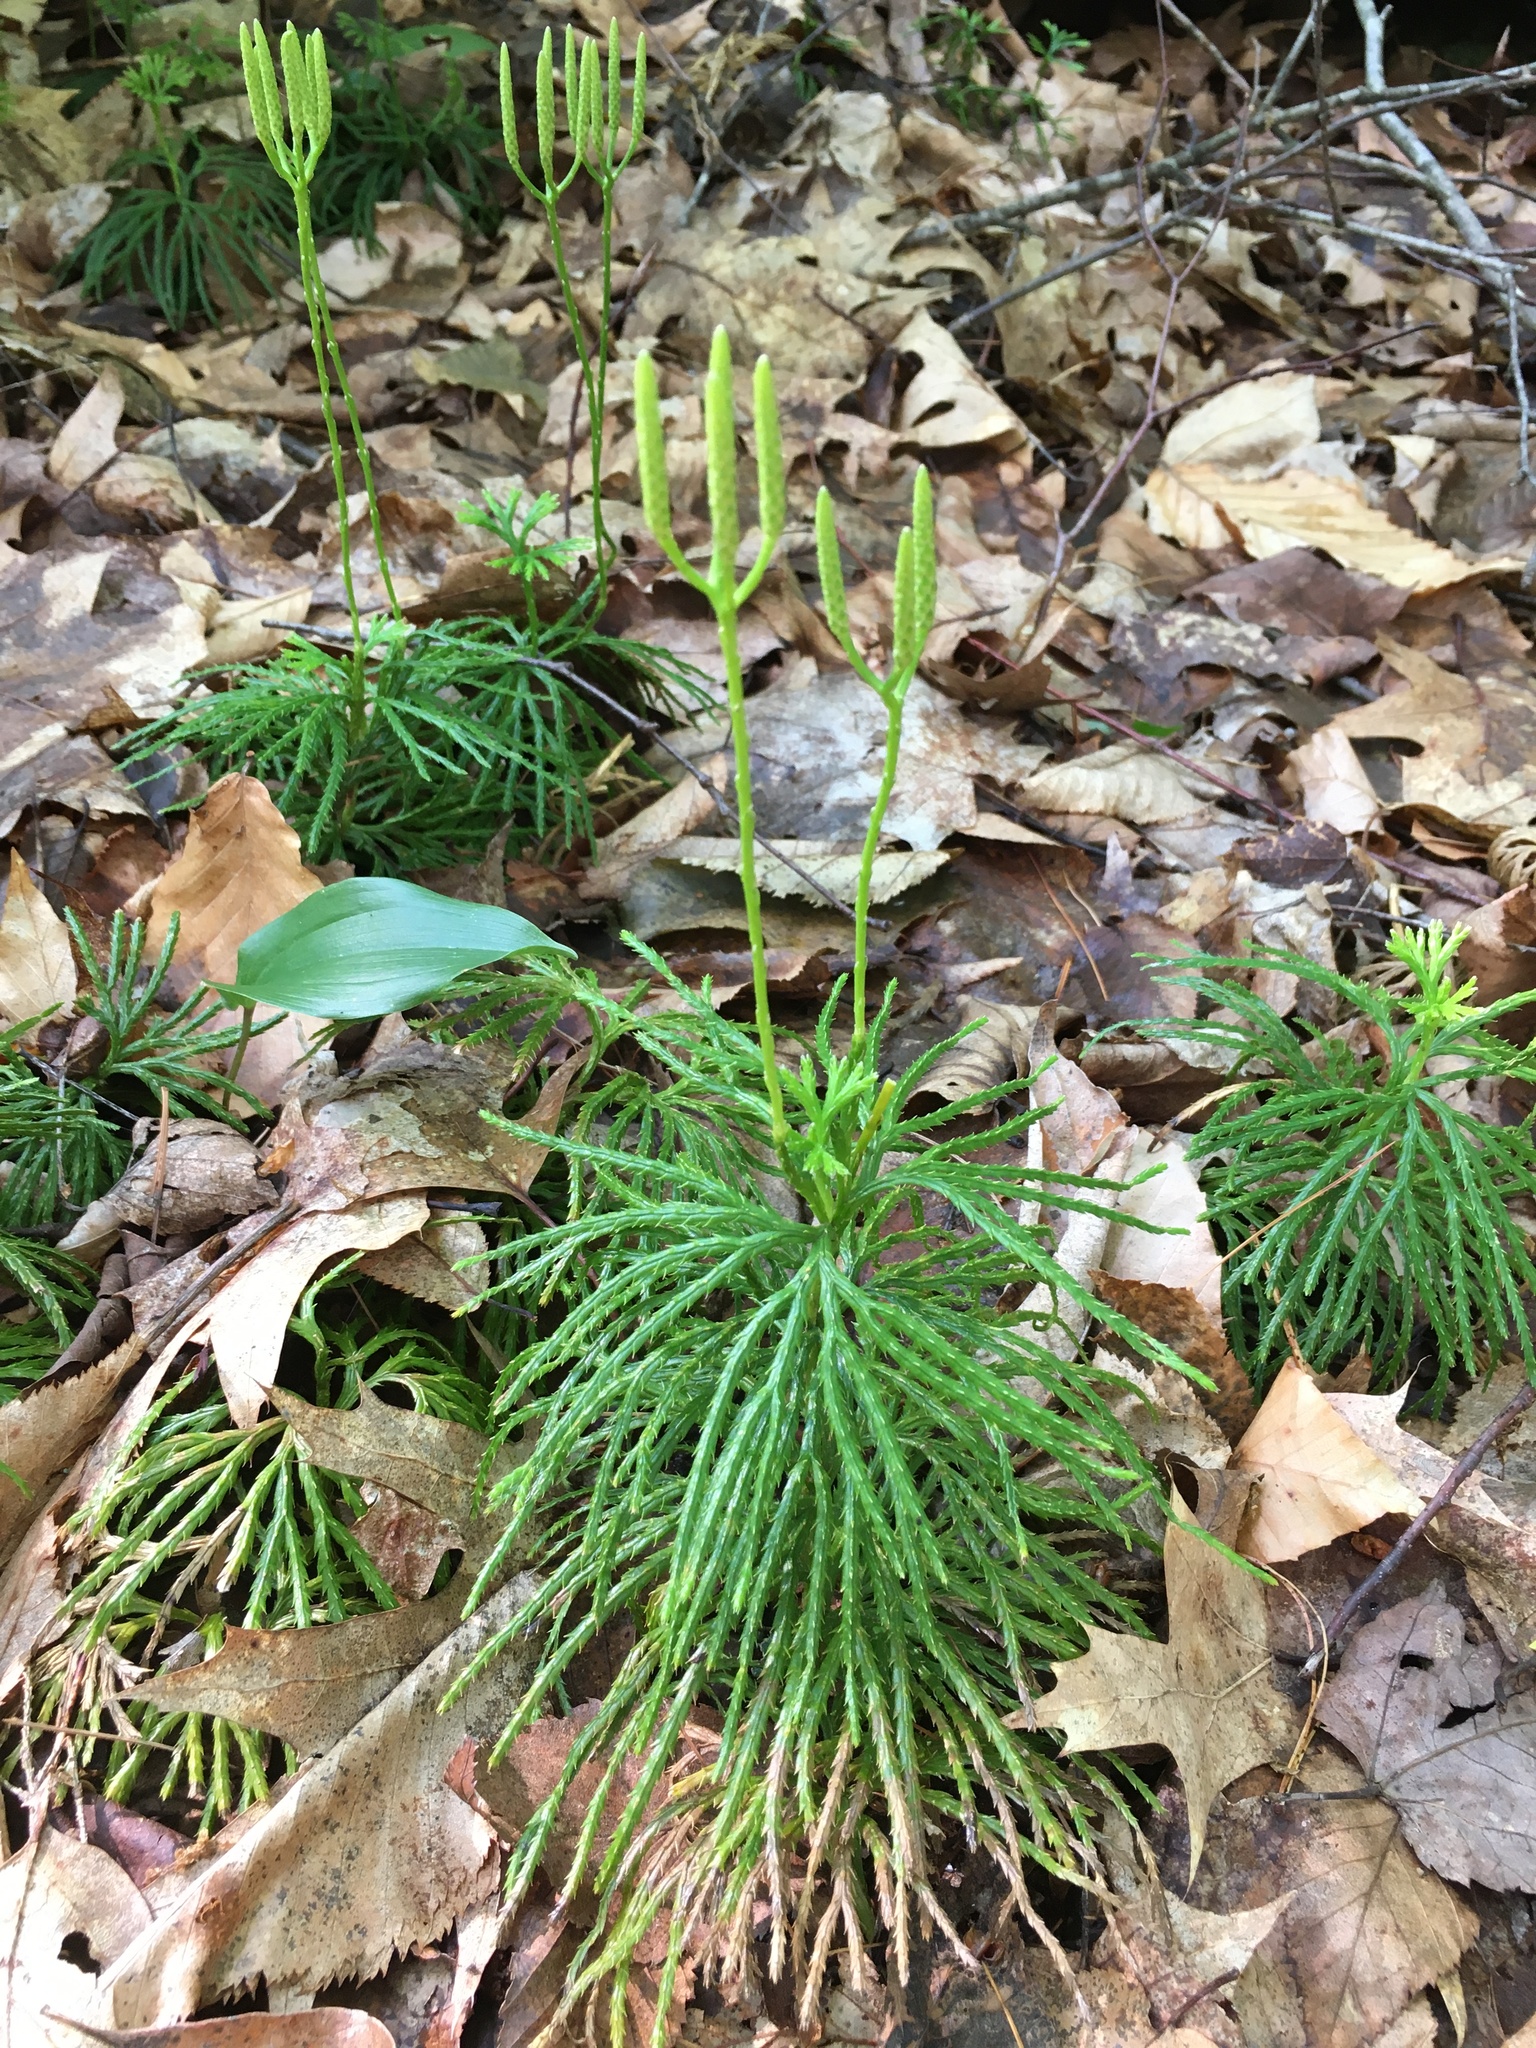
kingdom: Plantae
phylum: Tracheophyta
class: Lycopodiopsida
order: Lycopodiales
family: Lycopodiaceae
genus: Diphasiastrum
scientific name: Diphasiastrum digitatum
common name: Southern running-pine
